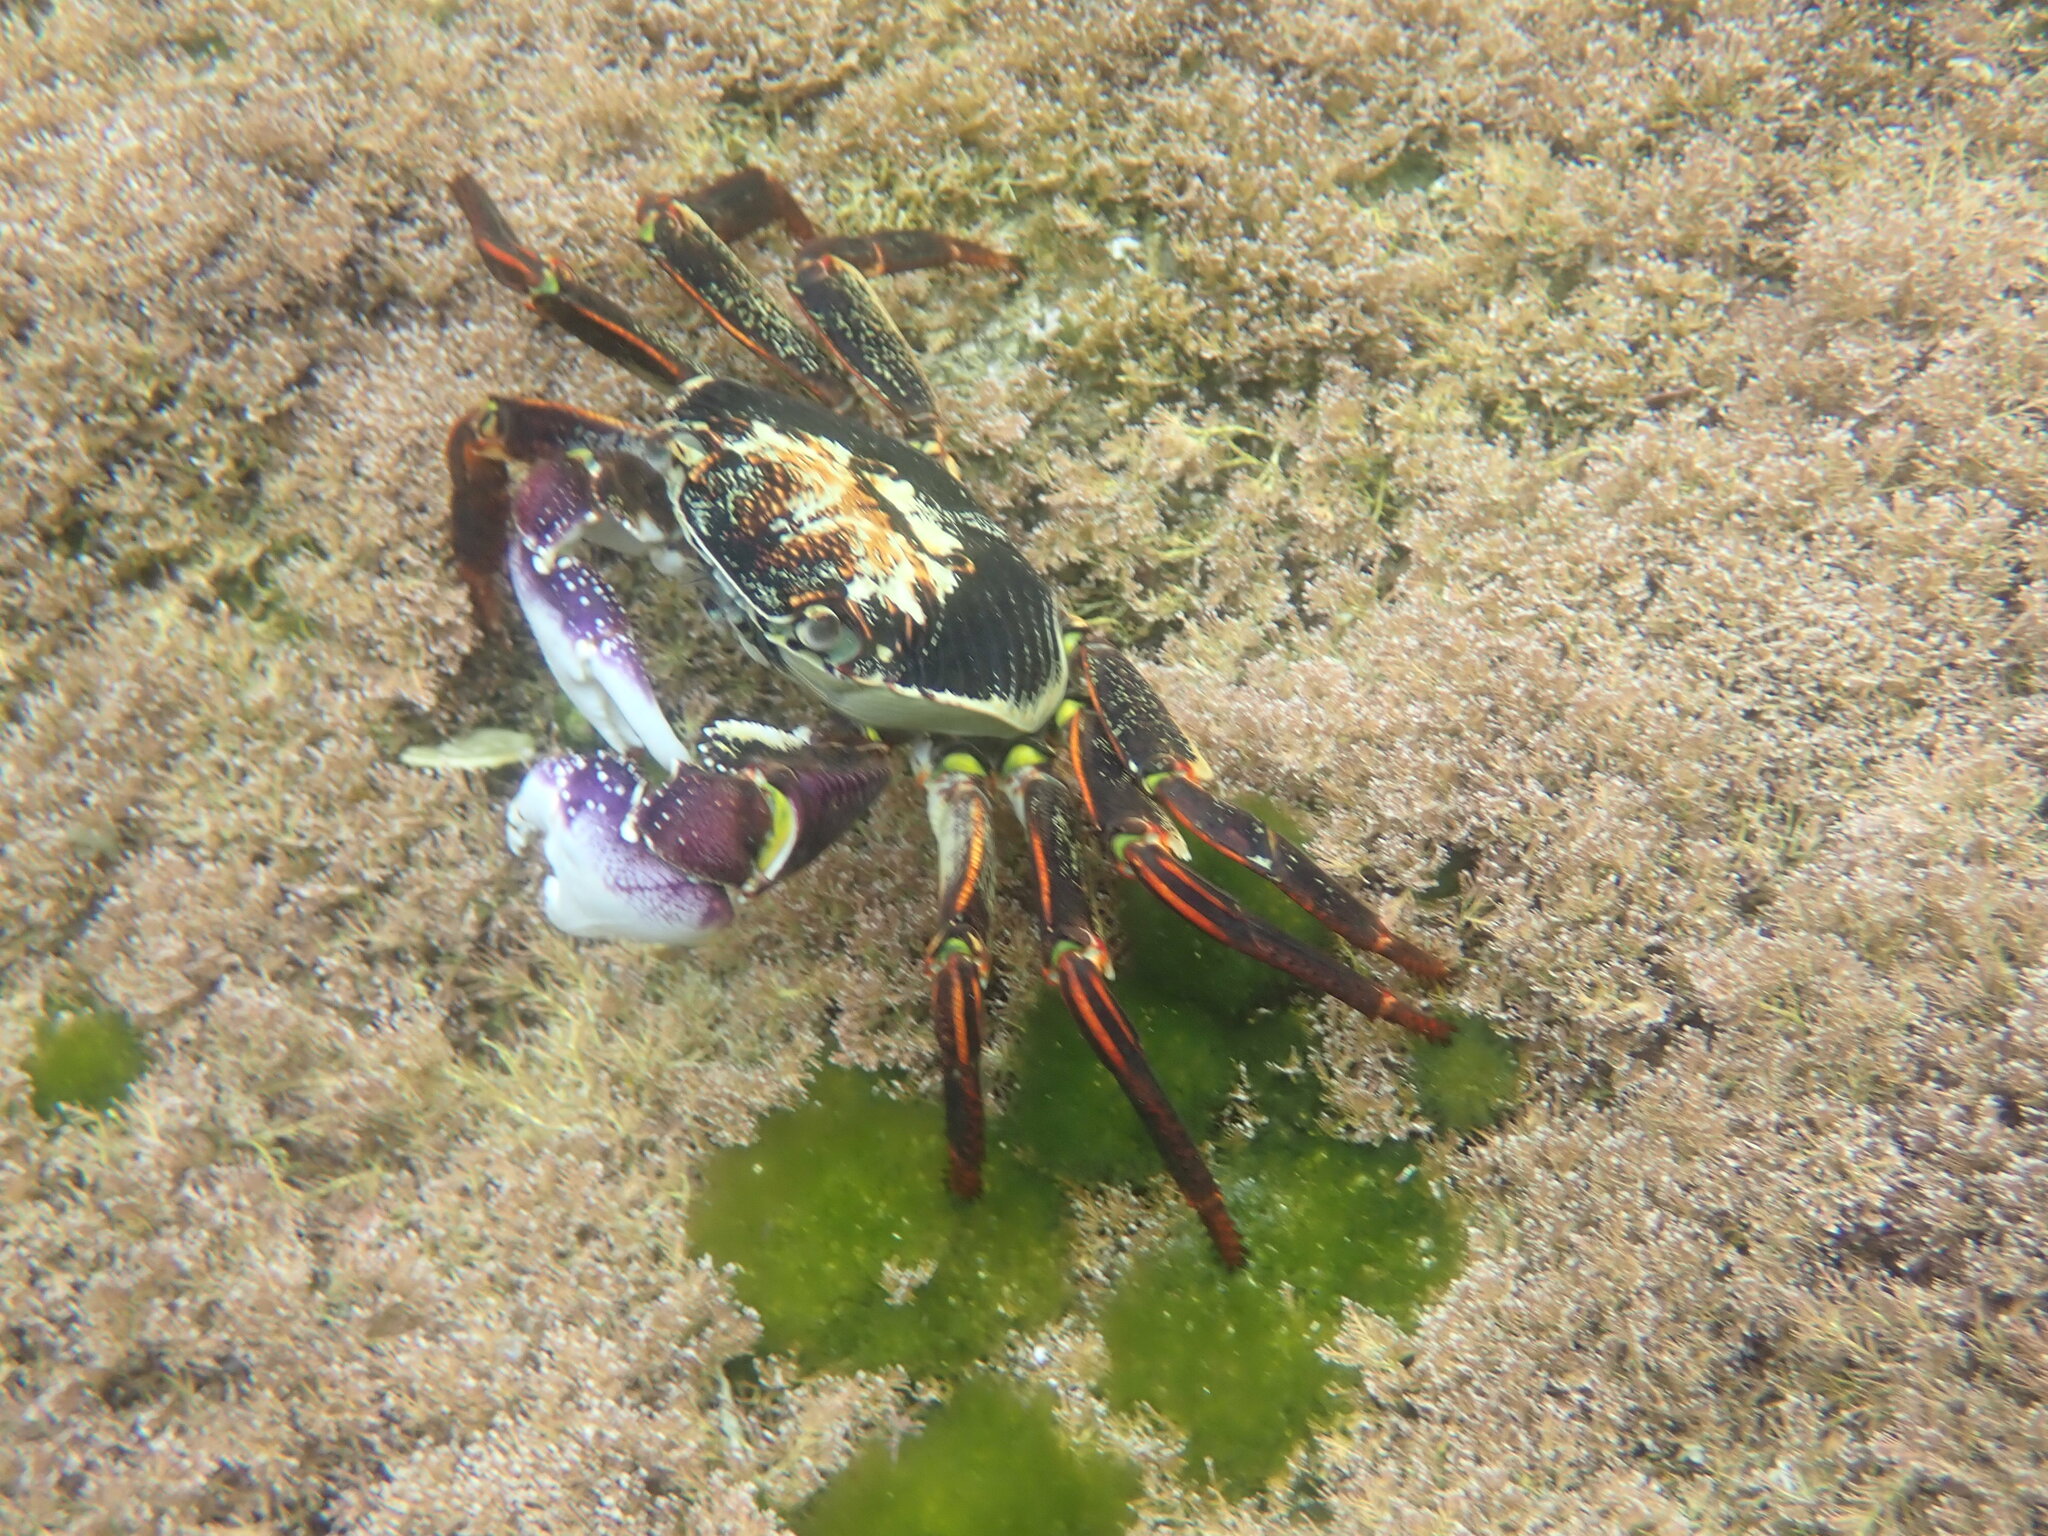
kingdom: Animalia
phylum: Arthropoda
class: Malacostraca
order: Decapoda
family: Grapsidae
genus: Leptograpsus
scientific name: Leptograpsus variegatus
